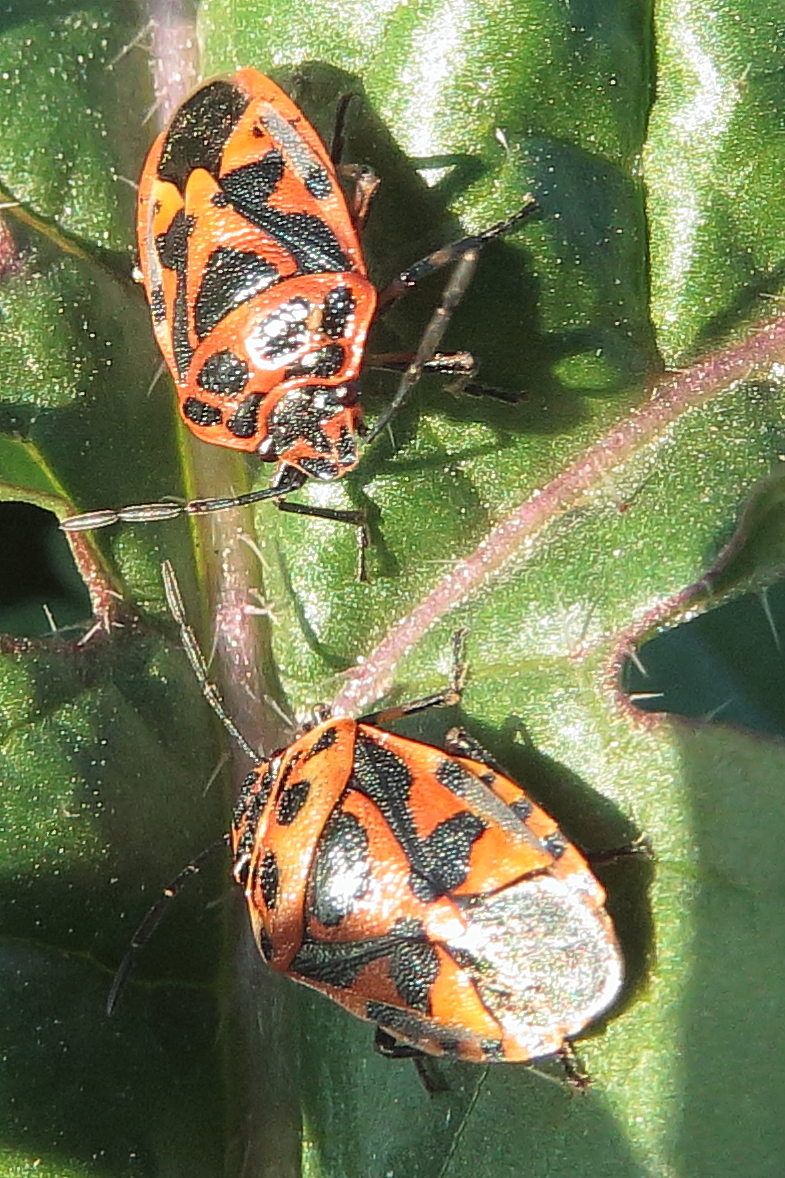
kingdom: Animalia
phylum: Arthropoda
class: Insecta
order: Hemiptera
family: Pentatomidae
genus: Eurydema
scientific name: Eurydema ornata
